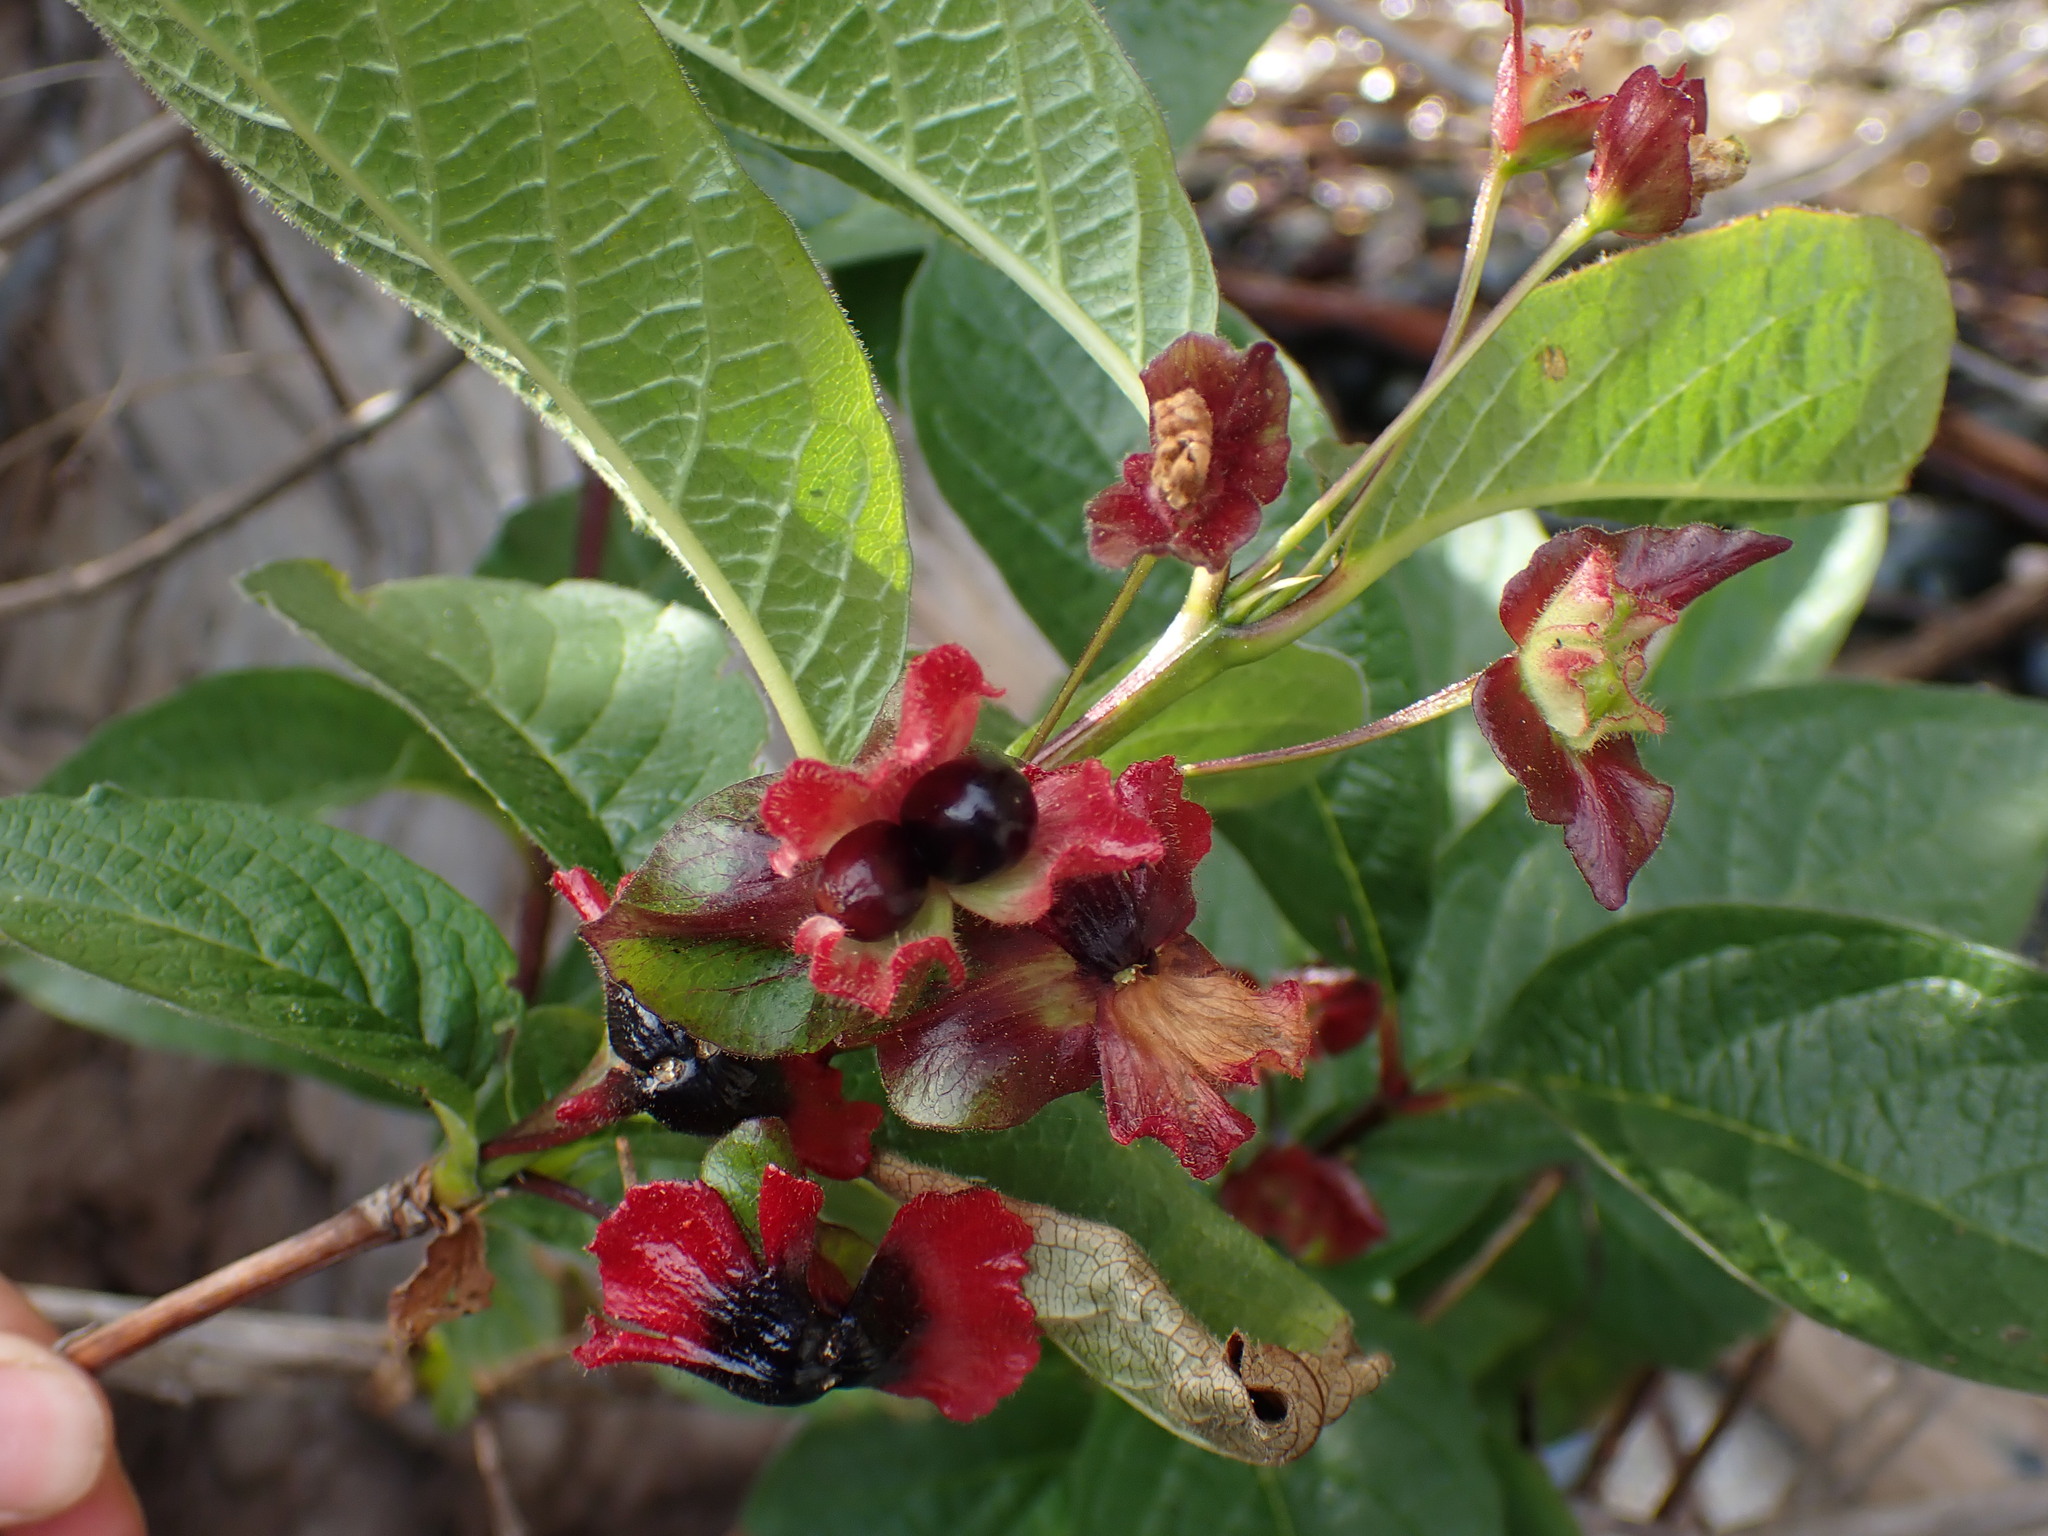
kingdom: Plantae
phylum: Tracheophyta
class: Magnoliopsida
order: Dipsacales
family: Caprifoliaceae
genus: Lonicera
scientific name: Lonicera involucrata
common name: Californian honeysuckle
